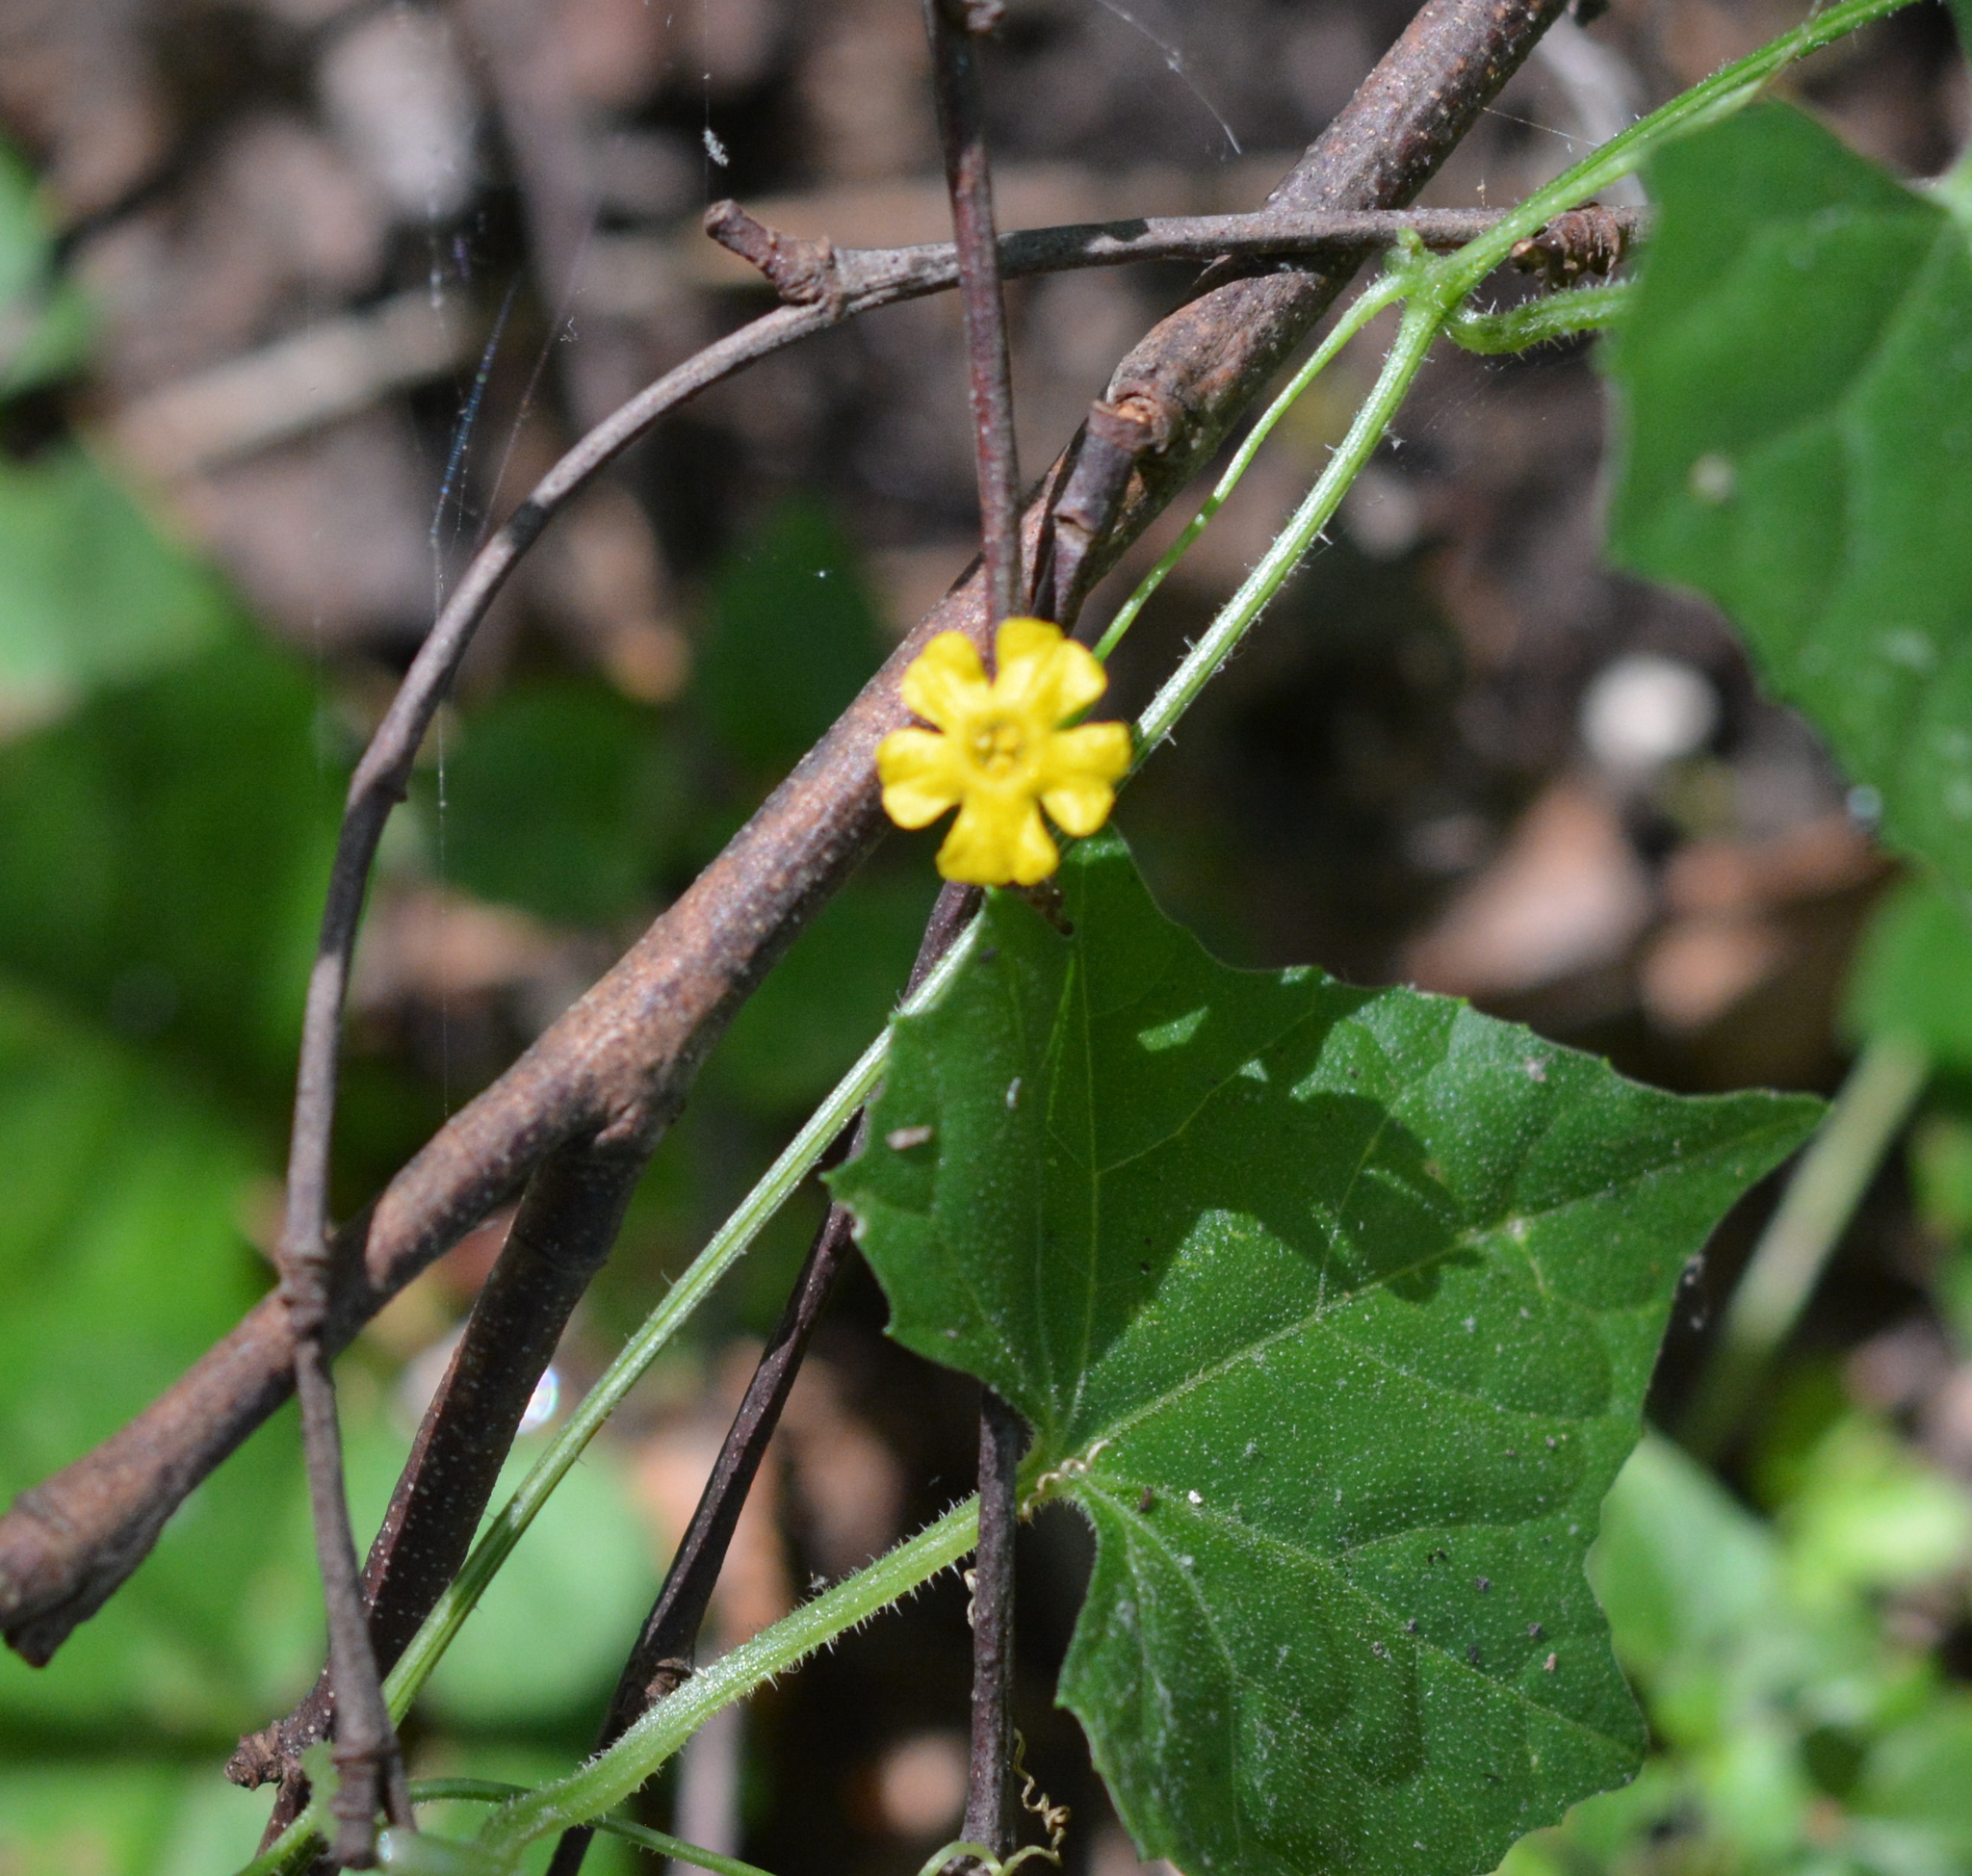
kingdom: Plantae
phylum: Tracheophyta
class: Magnoliopsida
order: Cucurbitales
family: Cucurbitaceae
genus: Melothria
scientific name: Melothria pendula
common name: Creeping-cucumber
